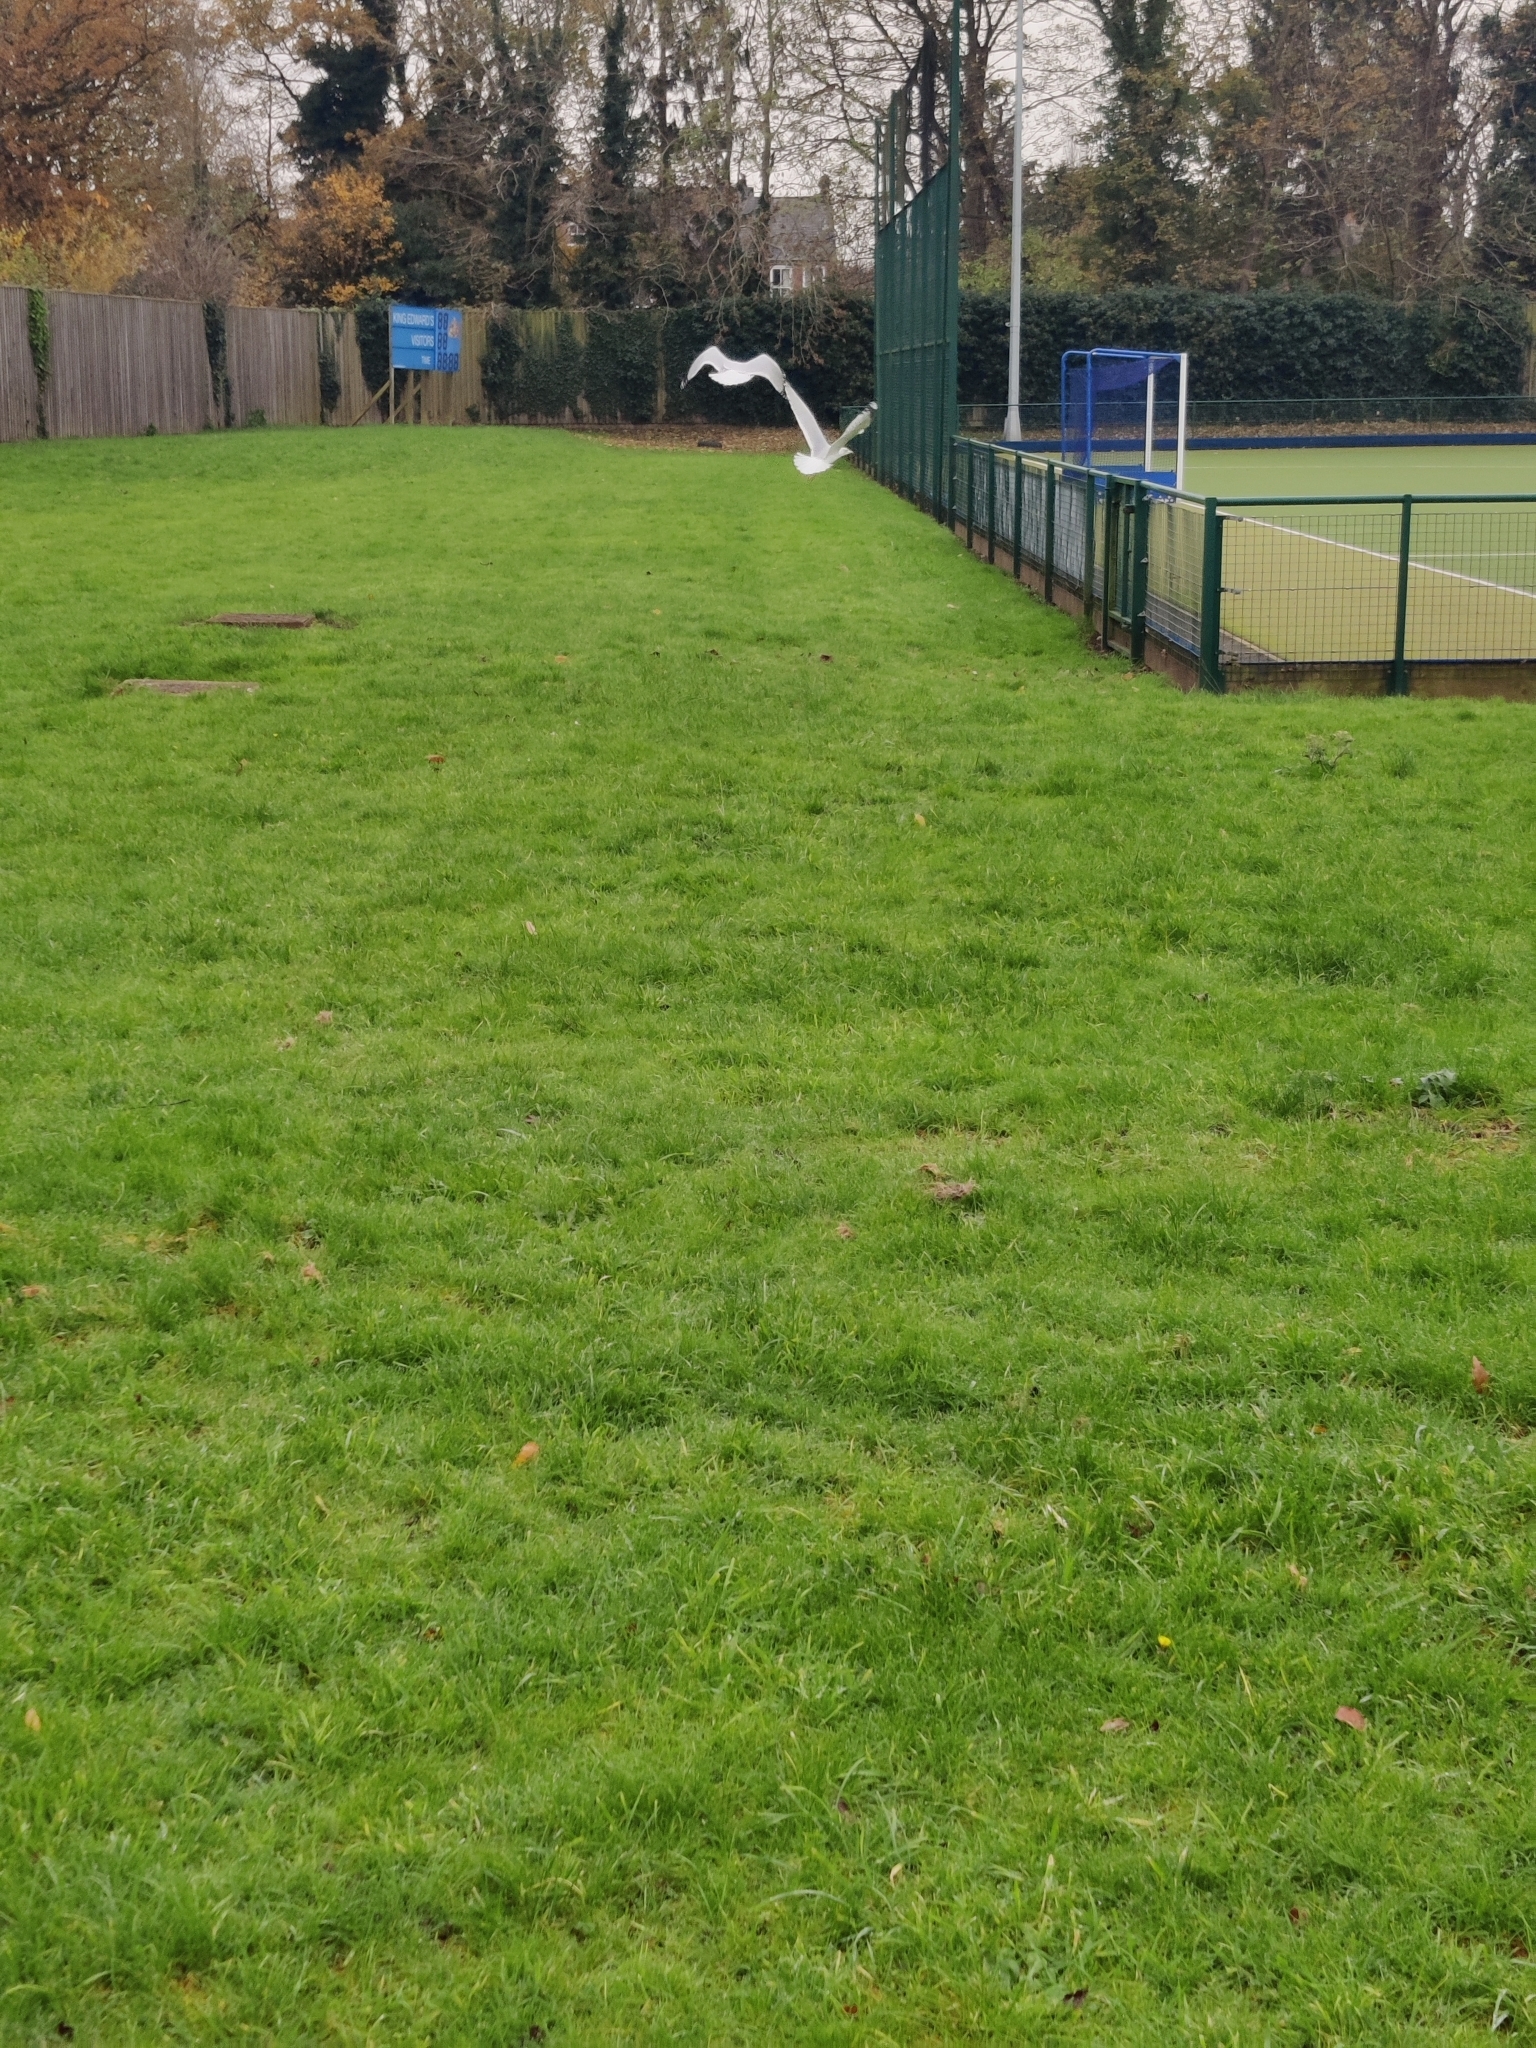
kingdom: Animalia
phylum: Chordata
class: Aves
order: Charadriiformes
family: Laridae
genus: Larus
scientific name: Larus argentatus
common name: Herring gull
